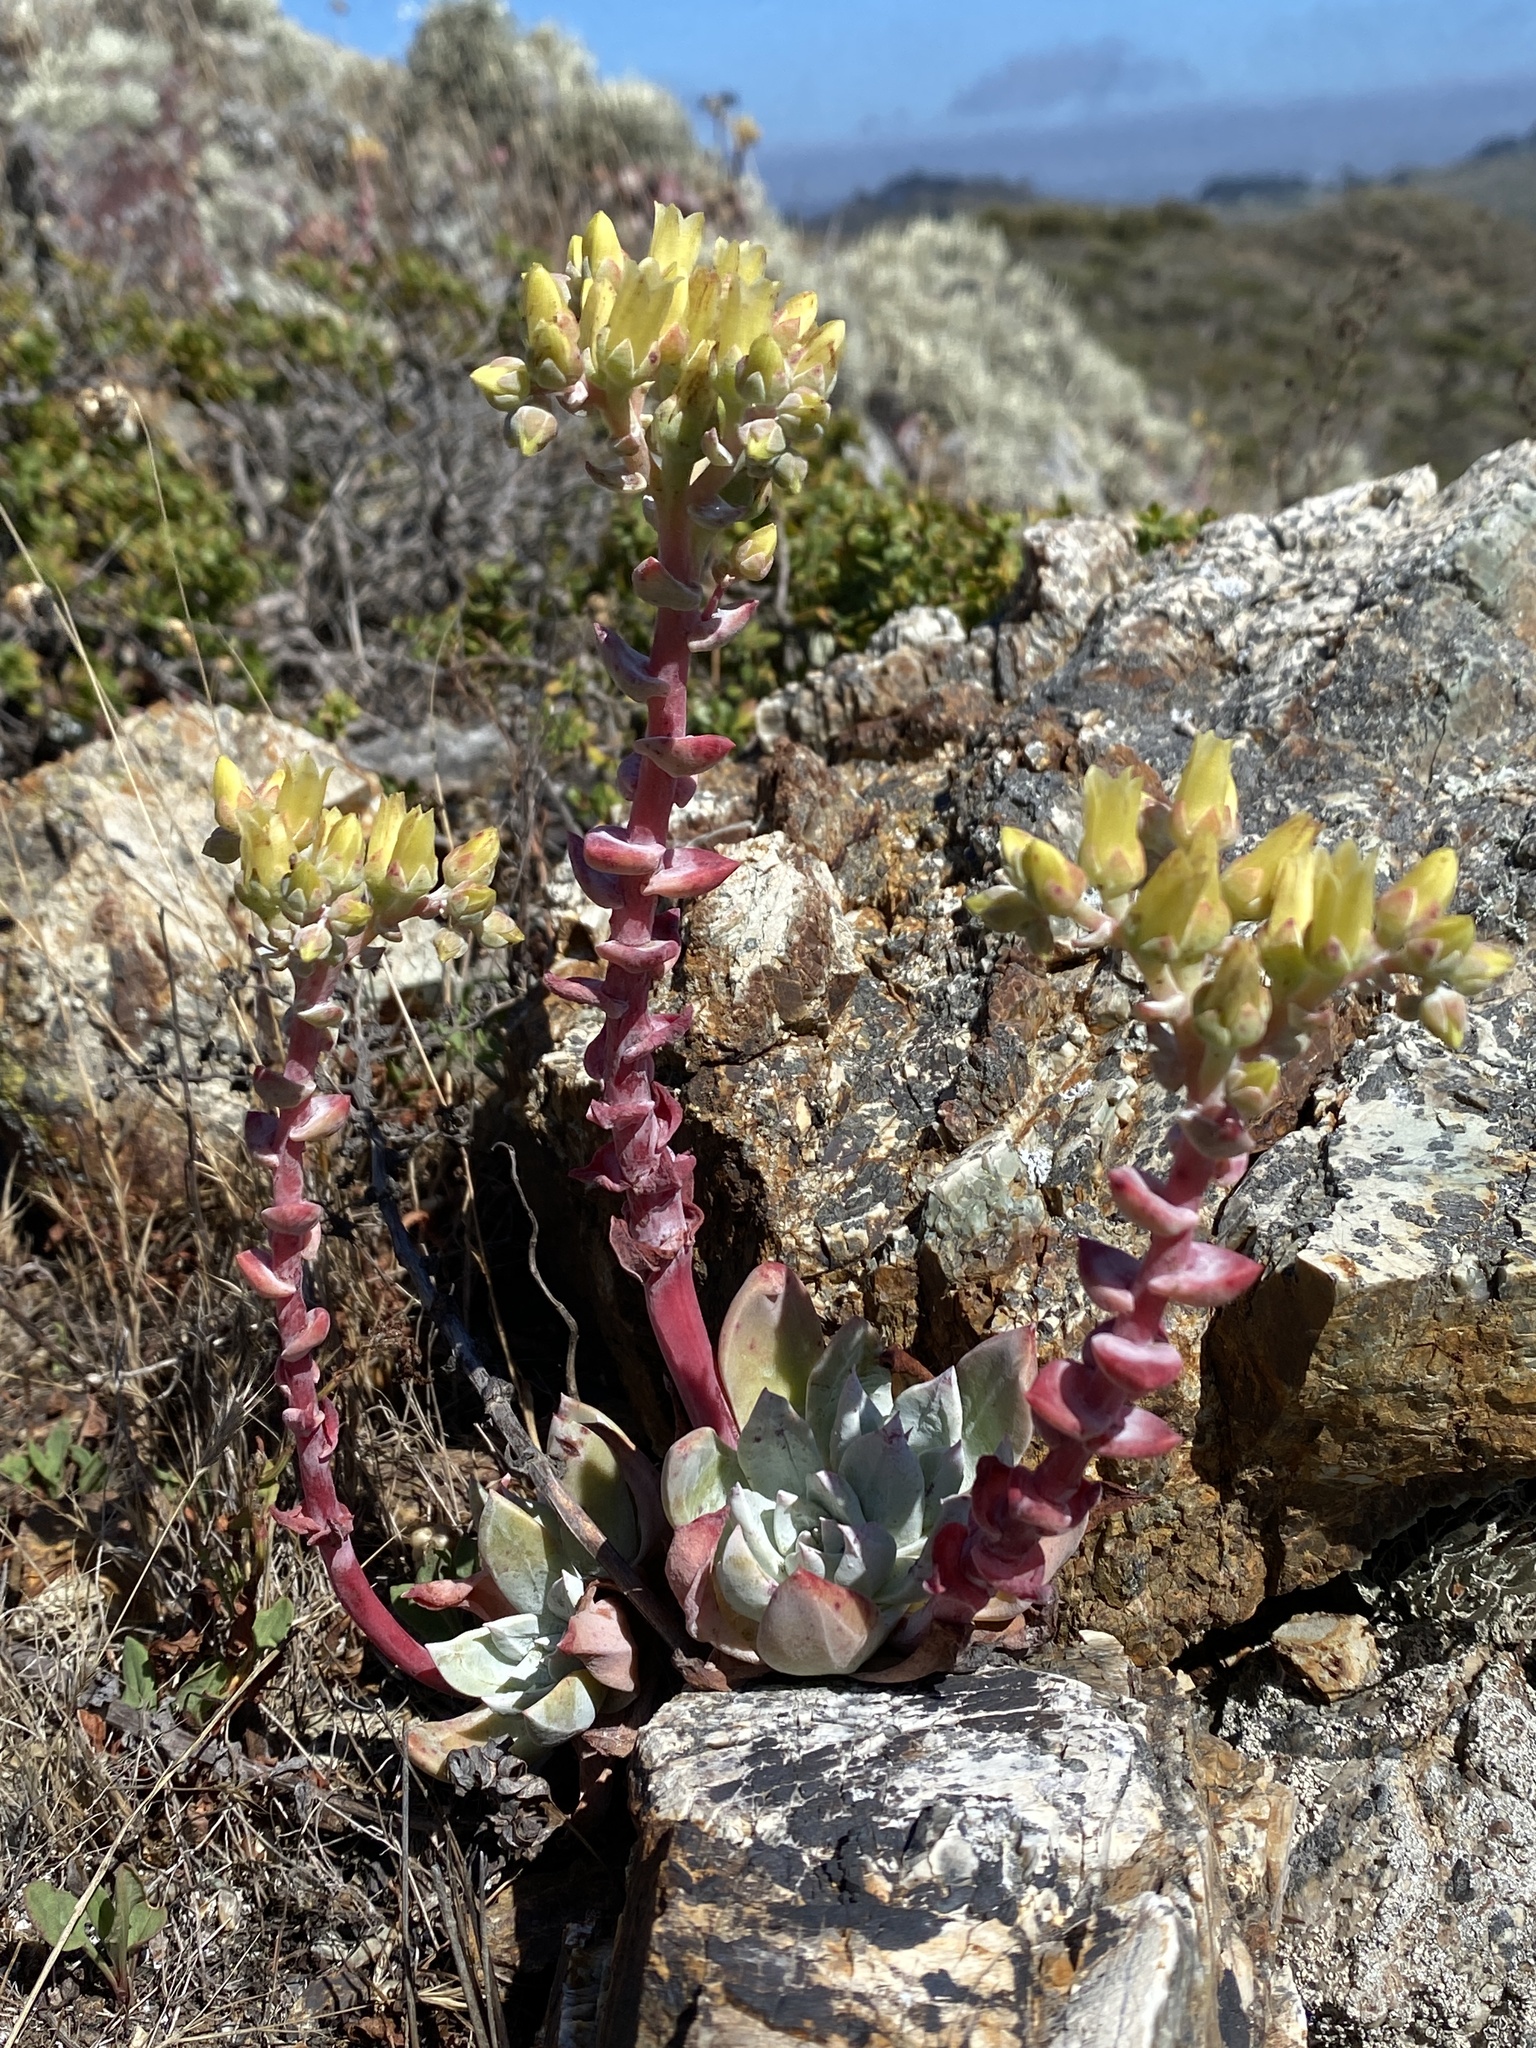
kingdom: Plantae
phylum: Tracheophyta
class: Magnoliopsida
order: Saxifragales
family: Crassulaceae
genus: Dudleya
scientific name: Dudleya farinosa
